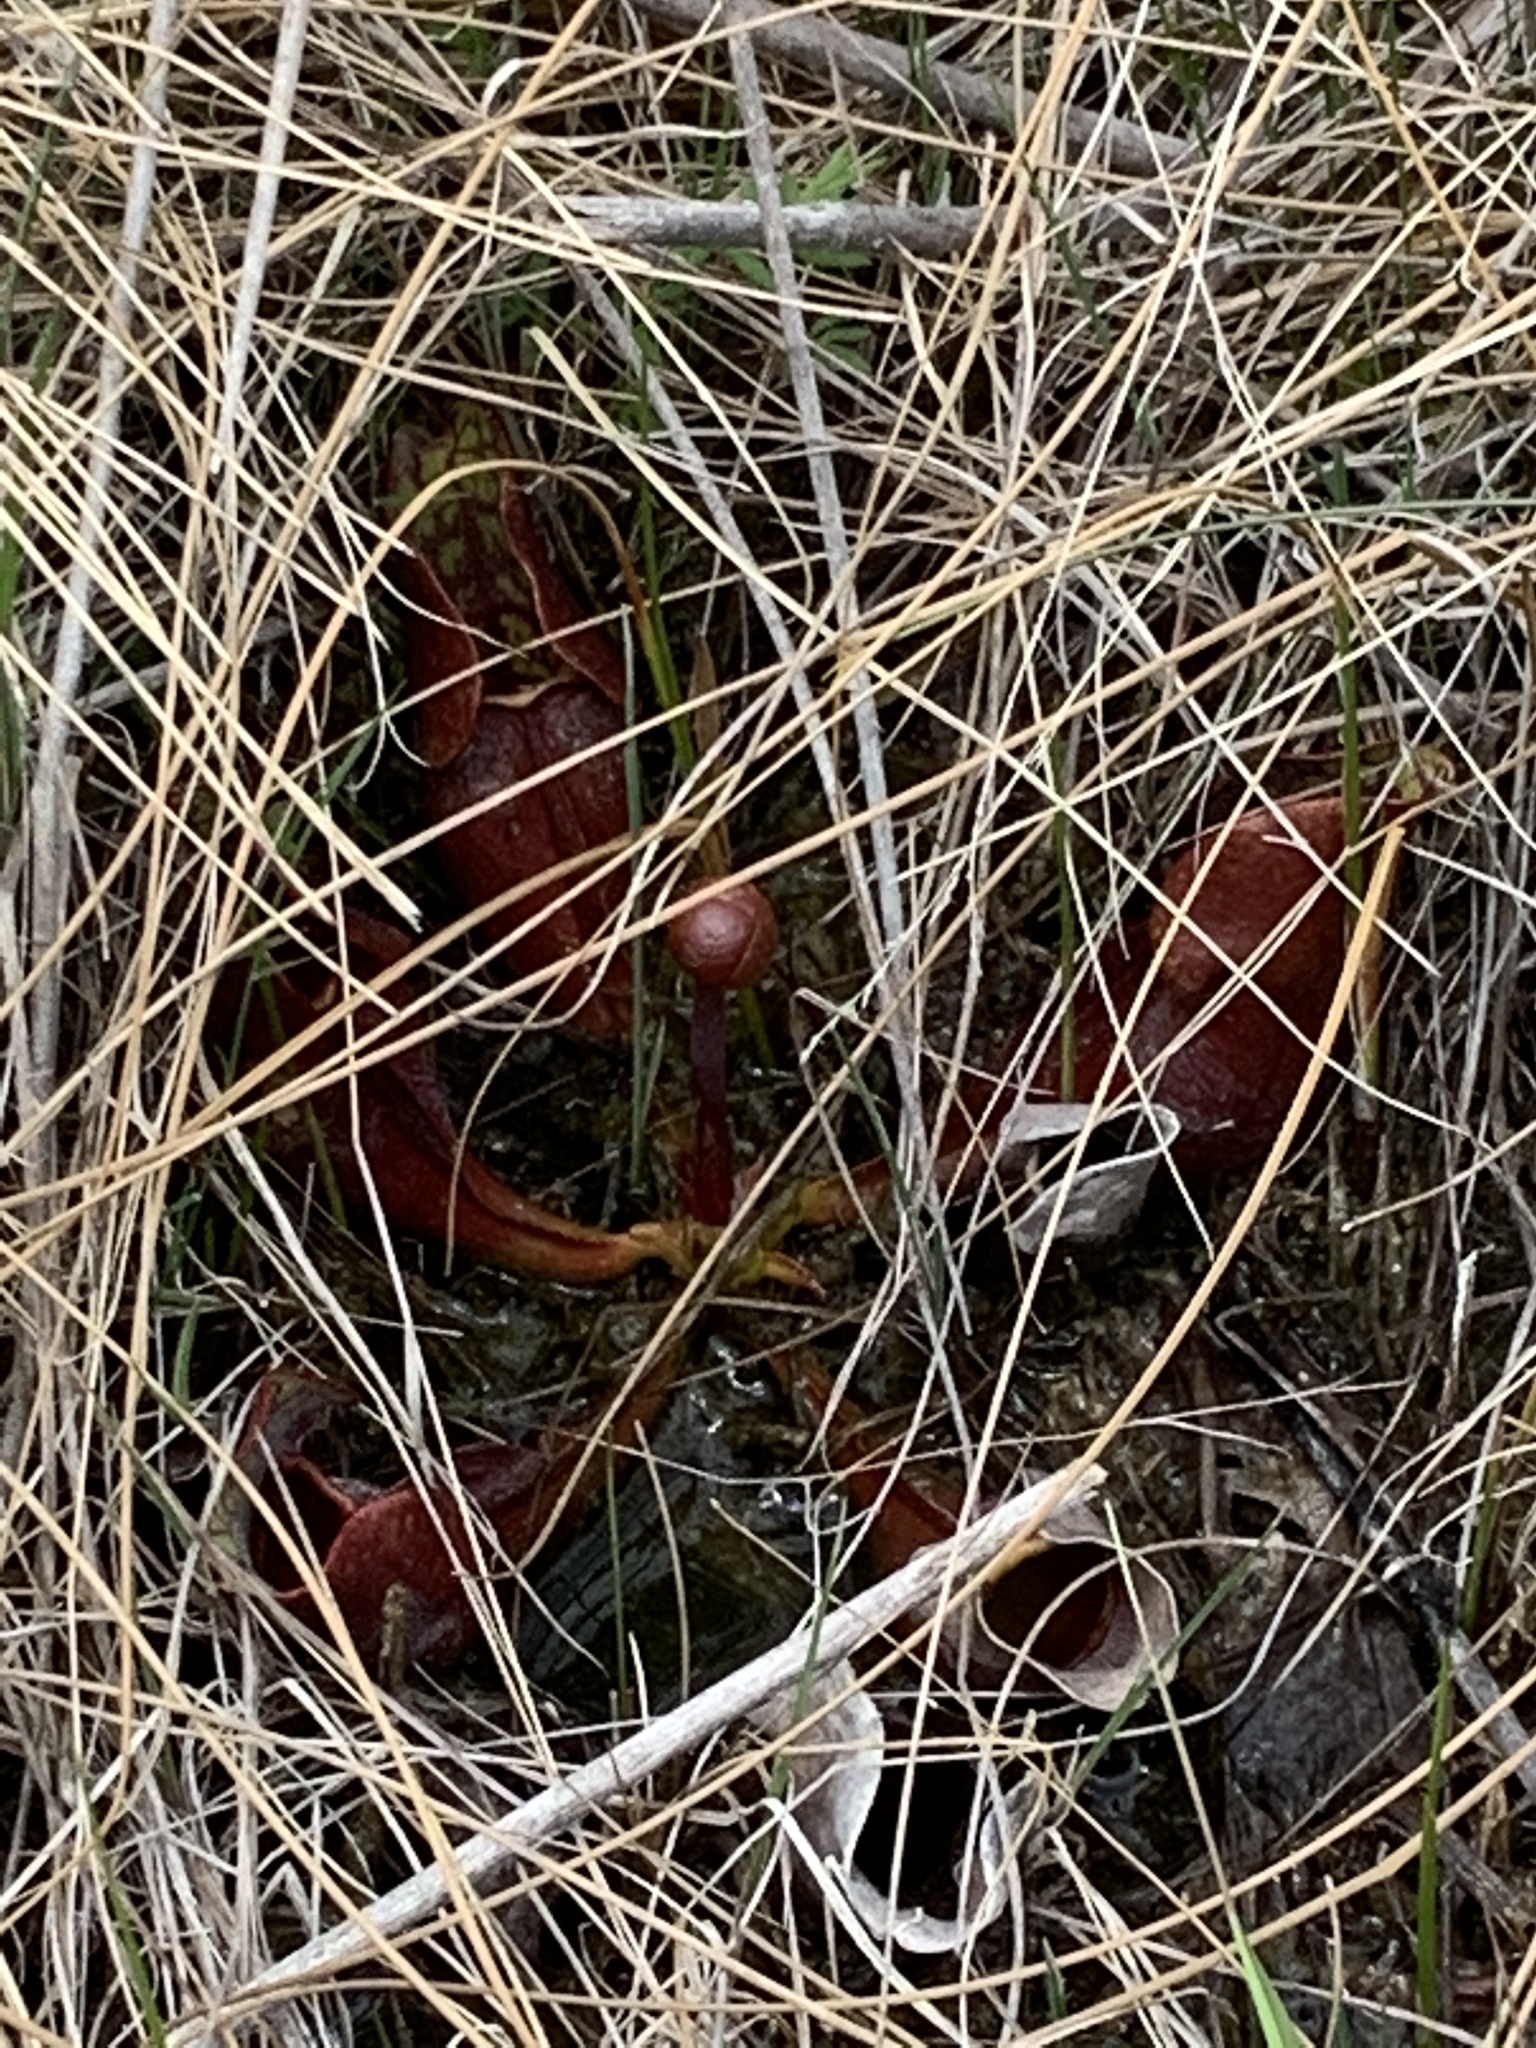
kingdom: Plantae
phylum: Tracheophyta
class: Magnoliopsida
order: Ericales
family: Sarraceniaceae
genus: Sarracenia
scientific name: Sarracenia purpurea
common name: Pitcherplant
